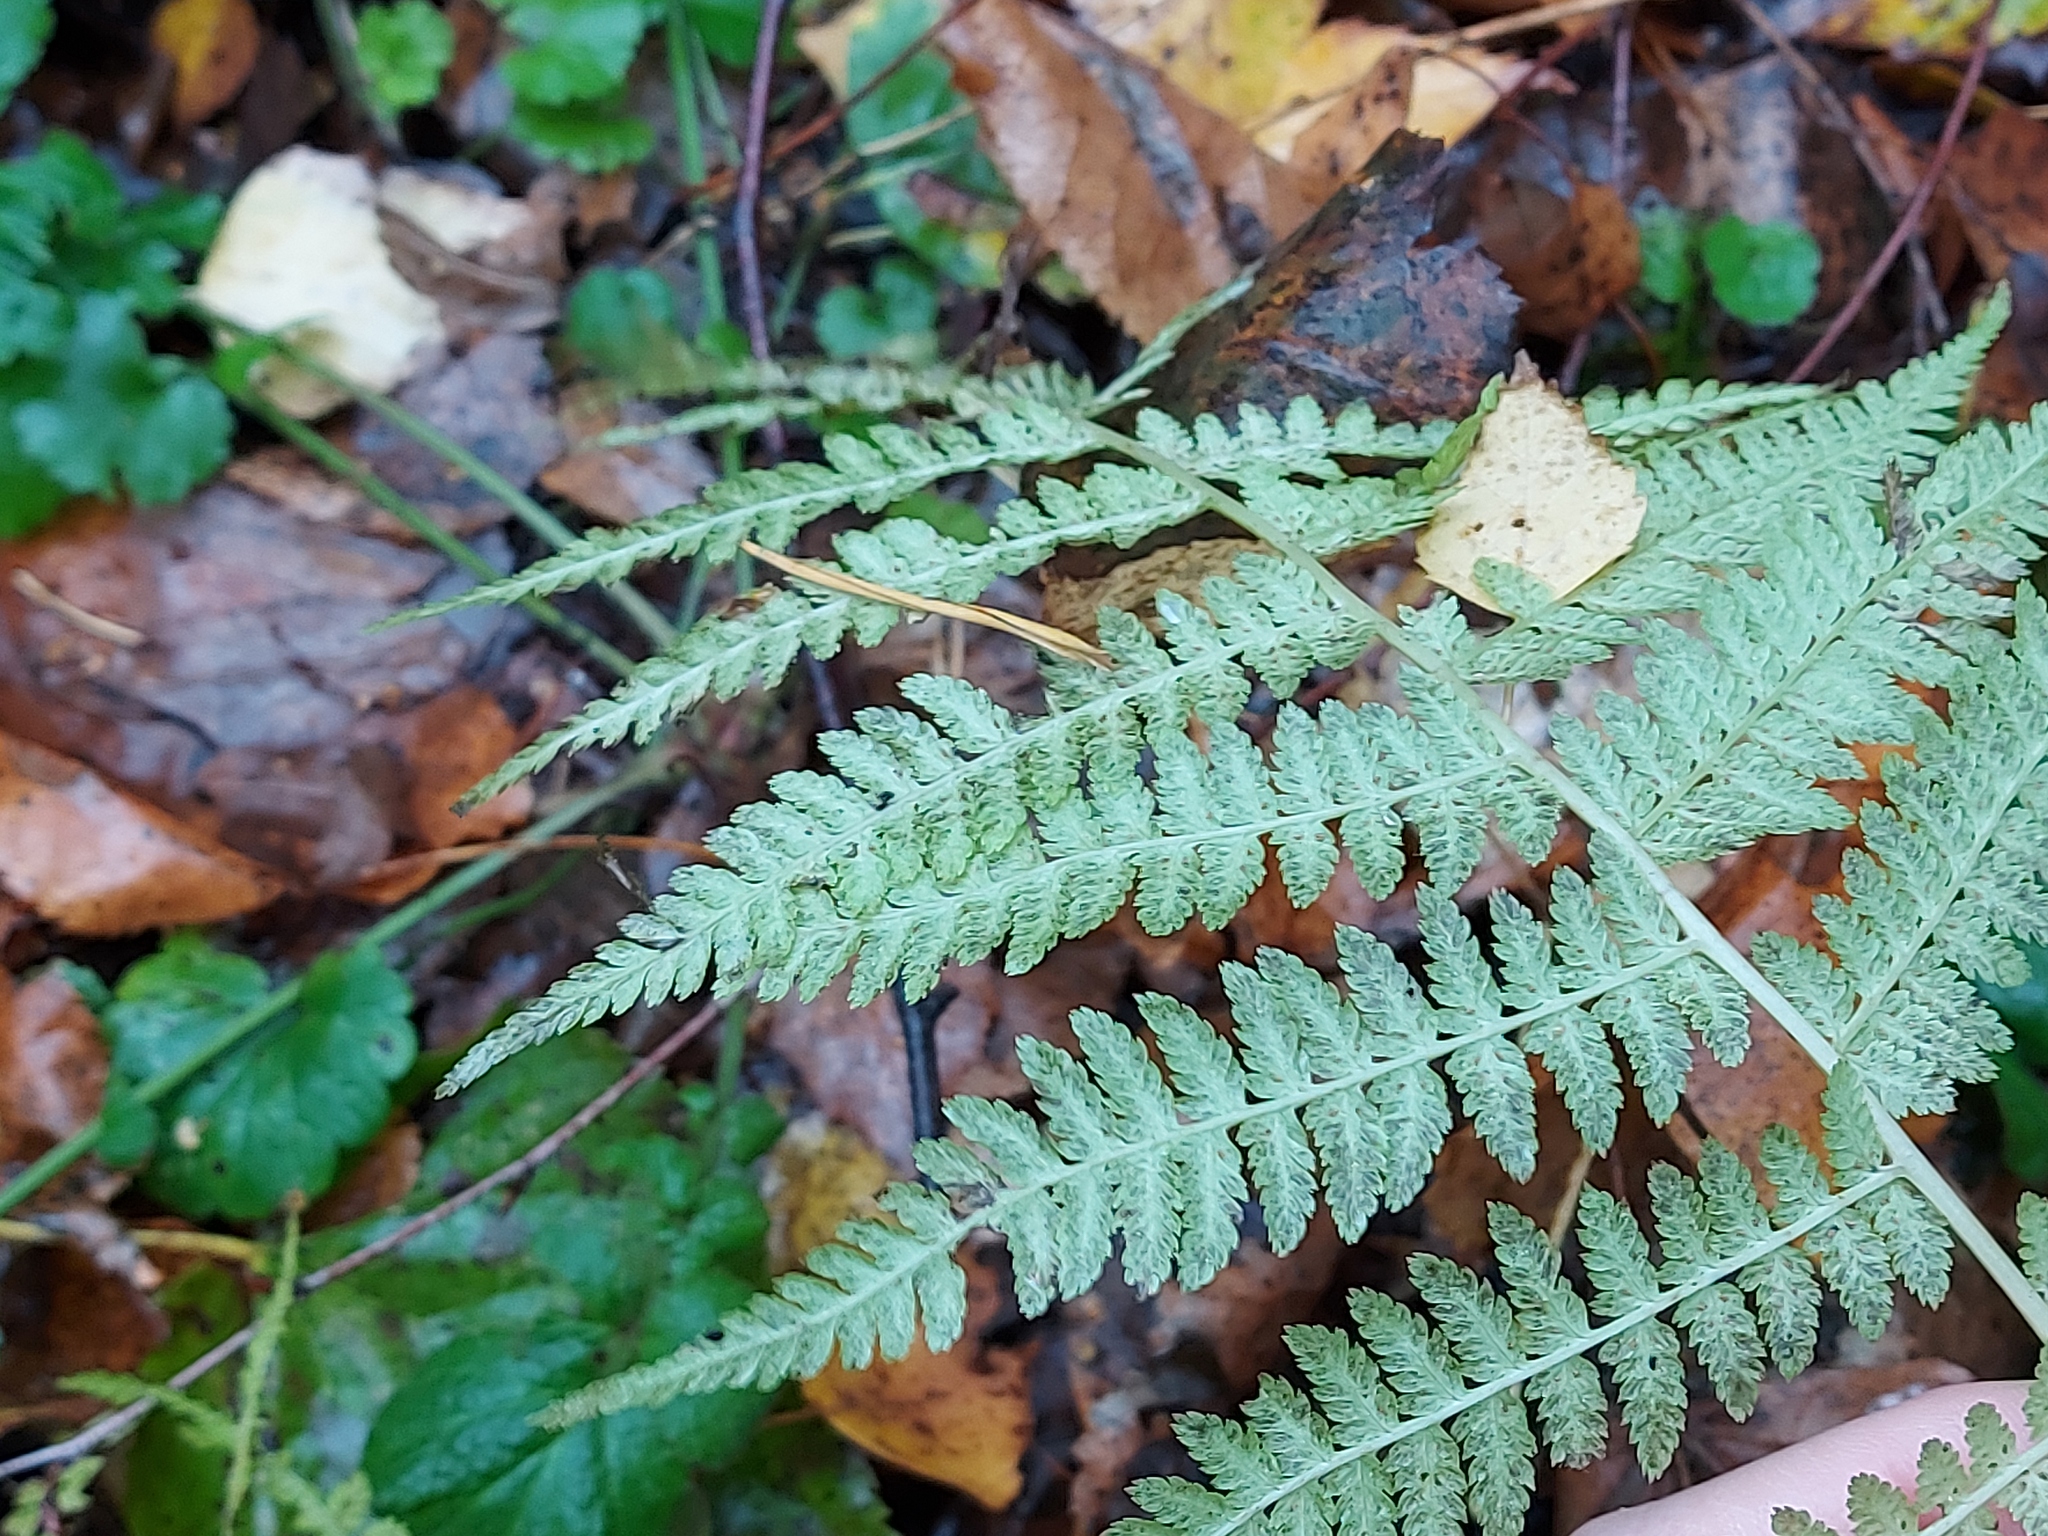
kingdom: Plantae
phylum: Tracheophyta
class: Polypodiopsida
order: Polypodiales
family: Athyriaceae
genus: Athyrium
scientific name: Athyrium filix-femina
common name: Lady fern
